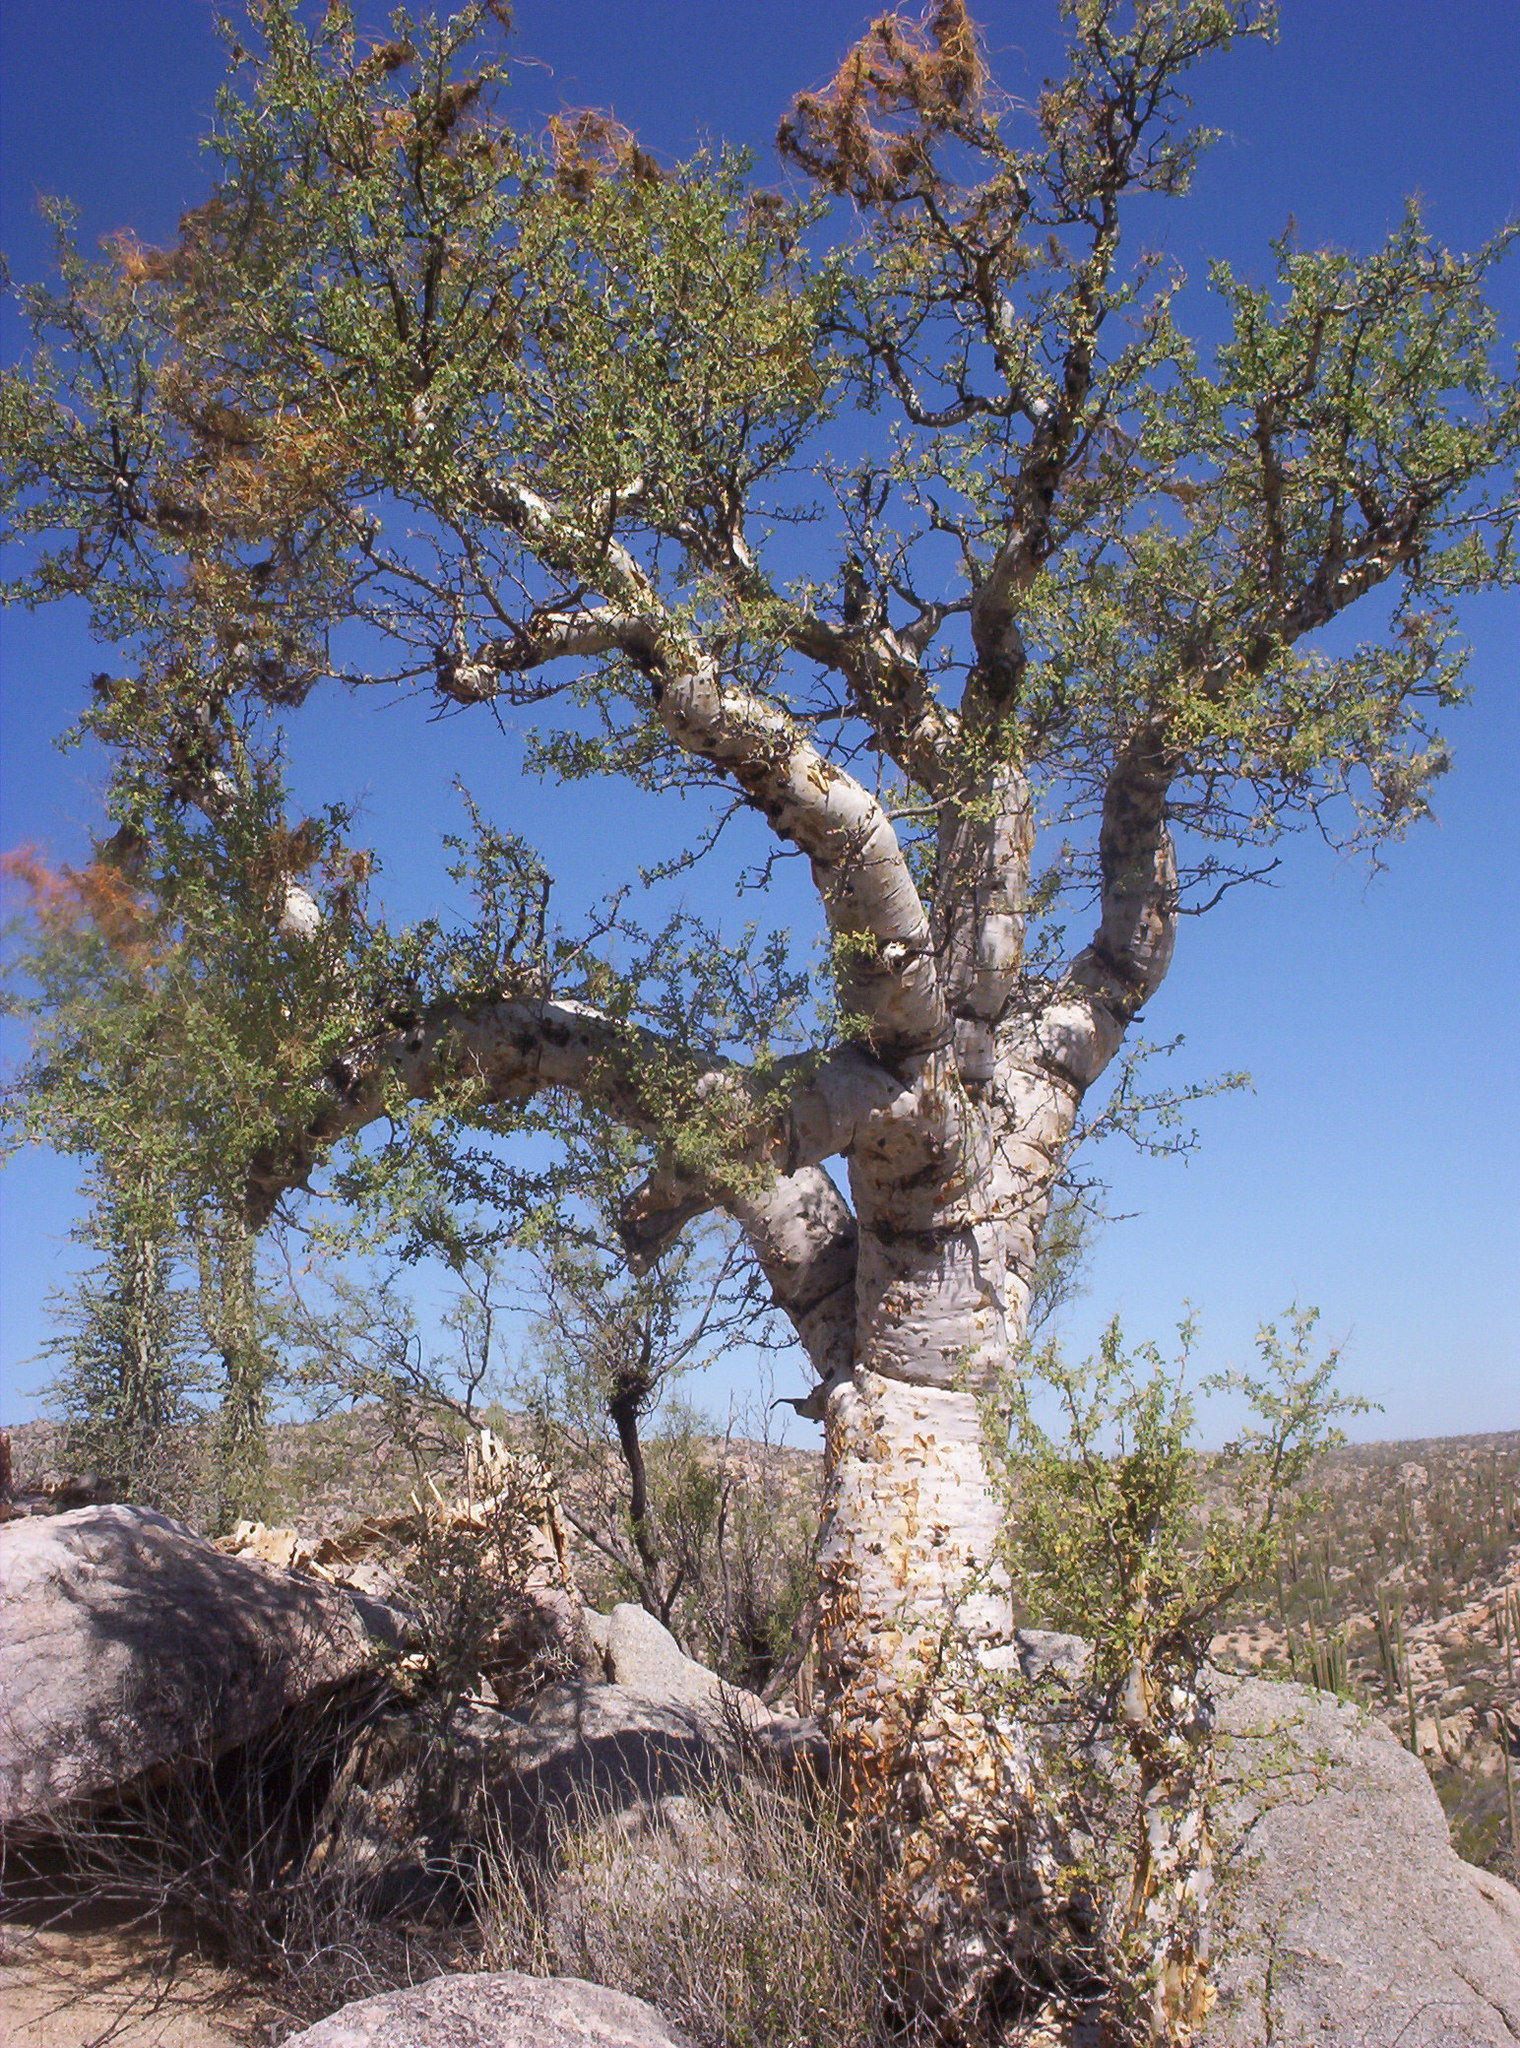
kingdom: Plantae
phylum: Tracheophyta
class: Magnoliopsida
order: Sapindales
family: Anacardiaceae
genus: Pachycormus
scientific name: Pachycormus discolor
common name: Succulent elephant trees
